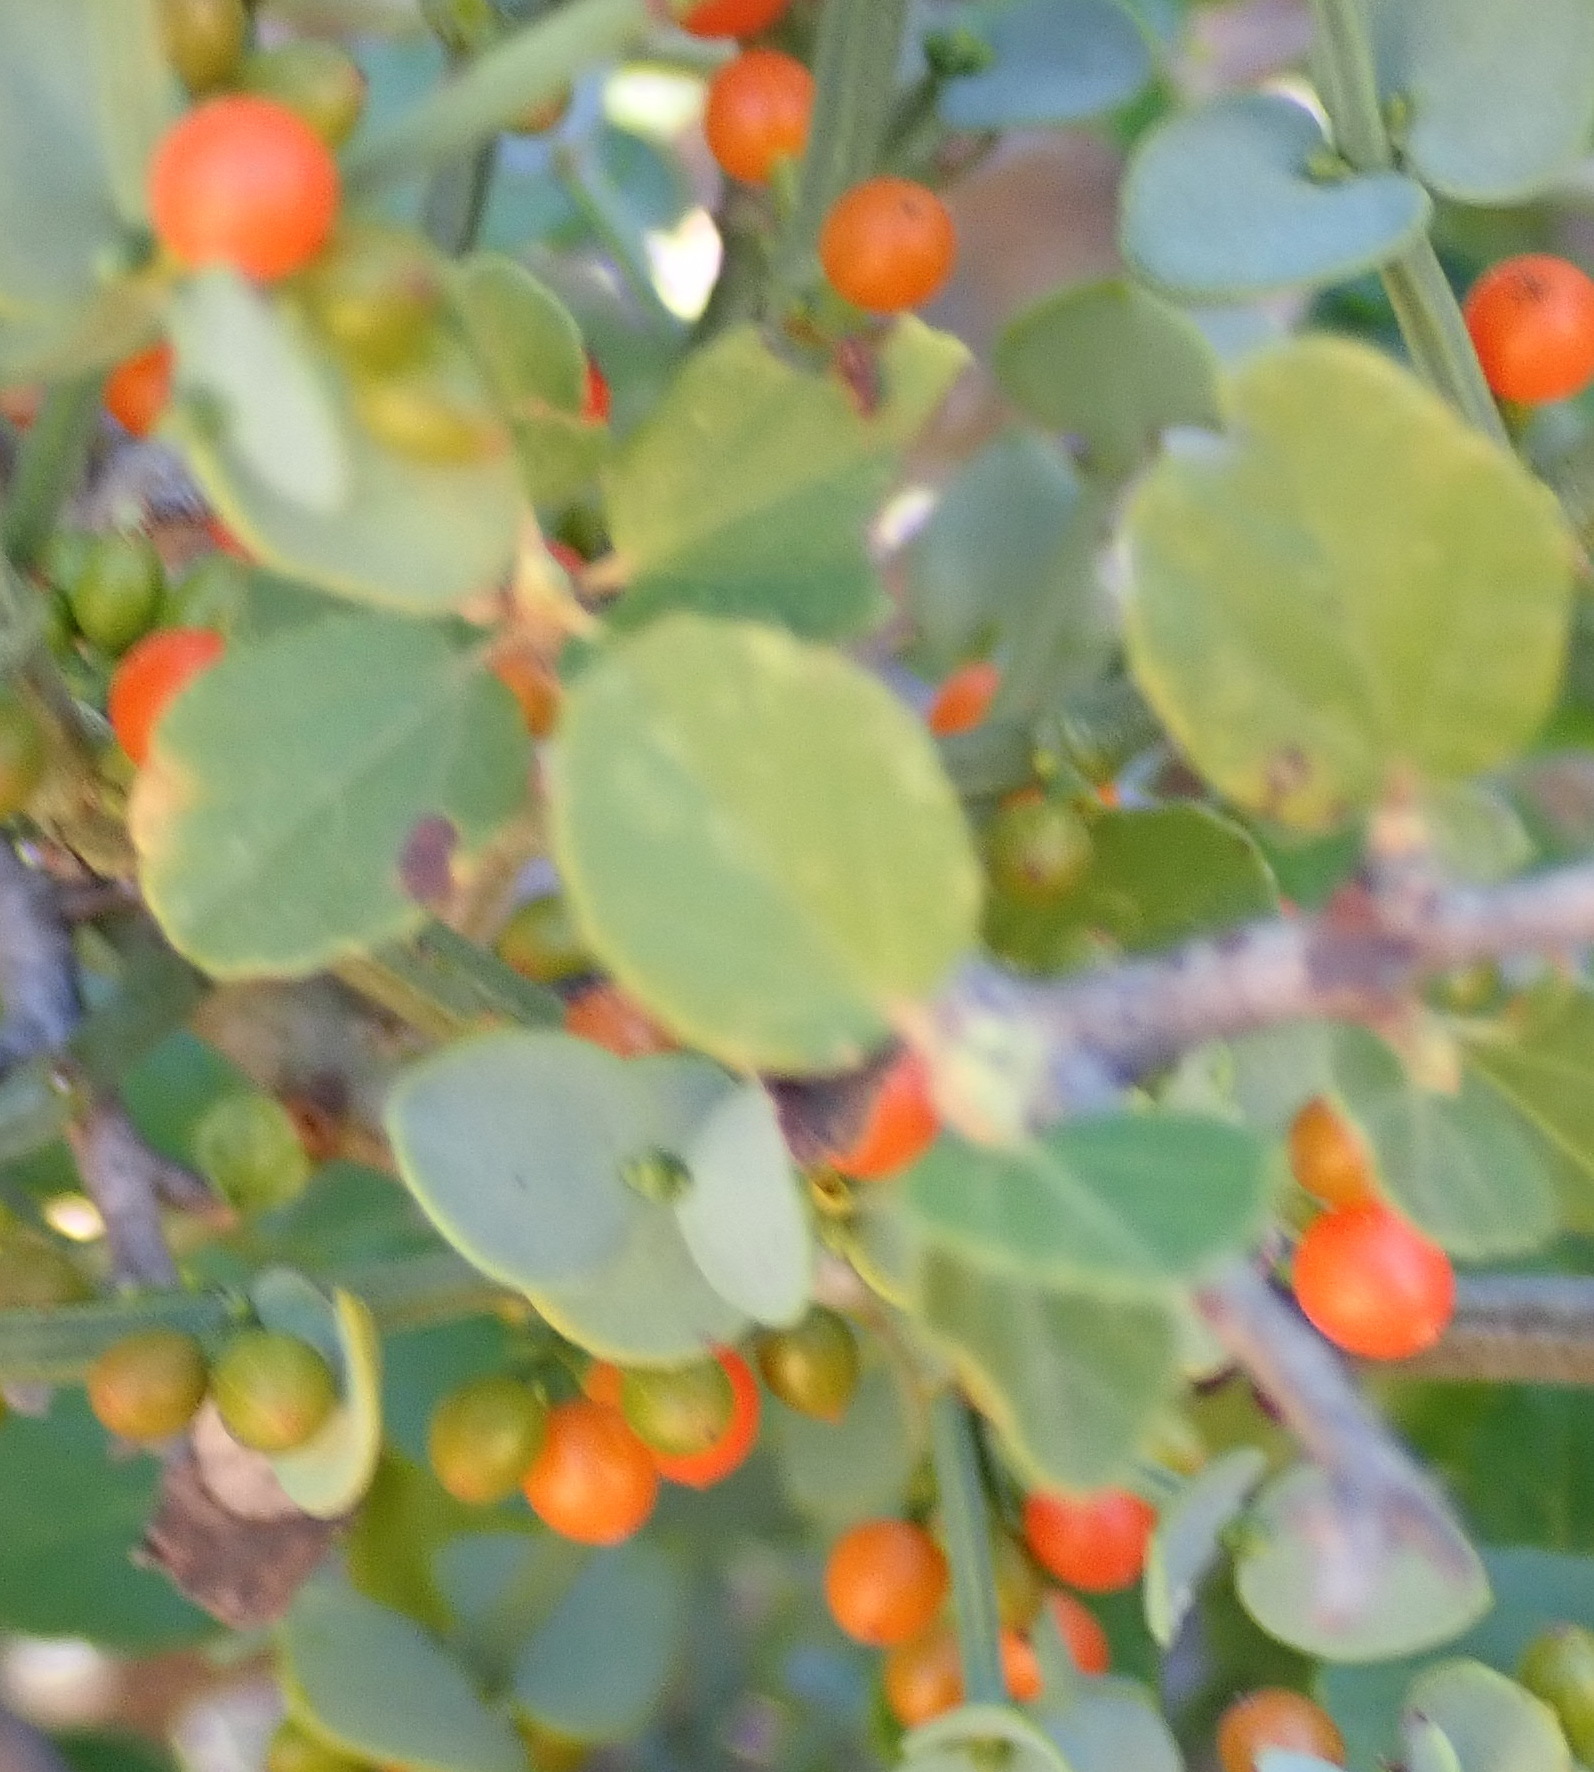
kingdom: Plantae
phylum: Tracheophyta
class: Magnoliopsida
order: Santalales
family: Viscaceae
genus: Viscum
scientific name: Viscum rotundifolium
